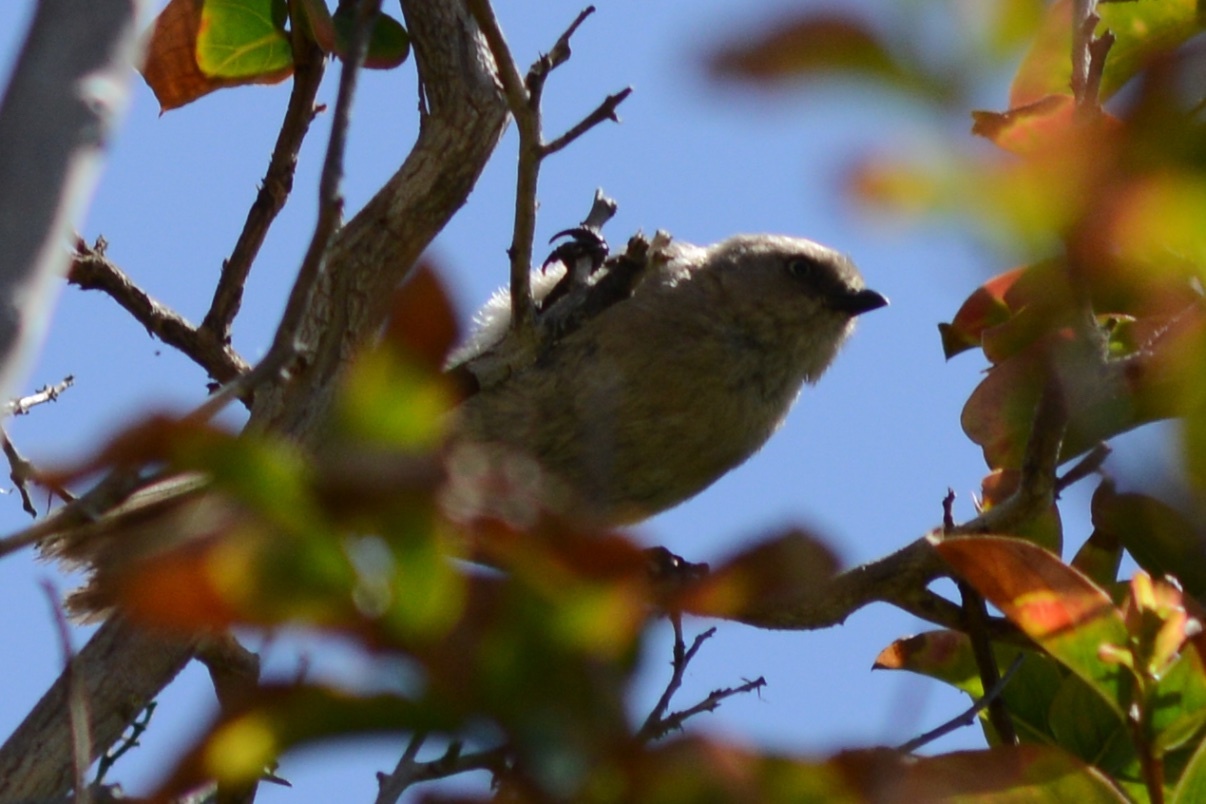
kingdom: Animalia
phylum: Chordata
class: Aves
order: Passeriformes
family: Aegithalidae
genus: Psaltriparus
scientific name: Psaltriparus minimus
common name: American bushtit
